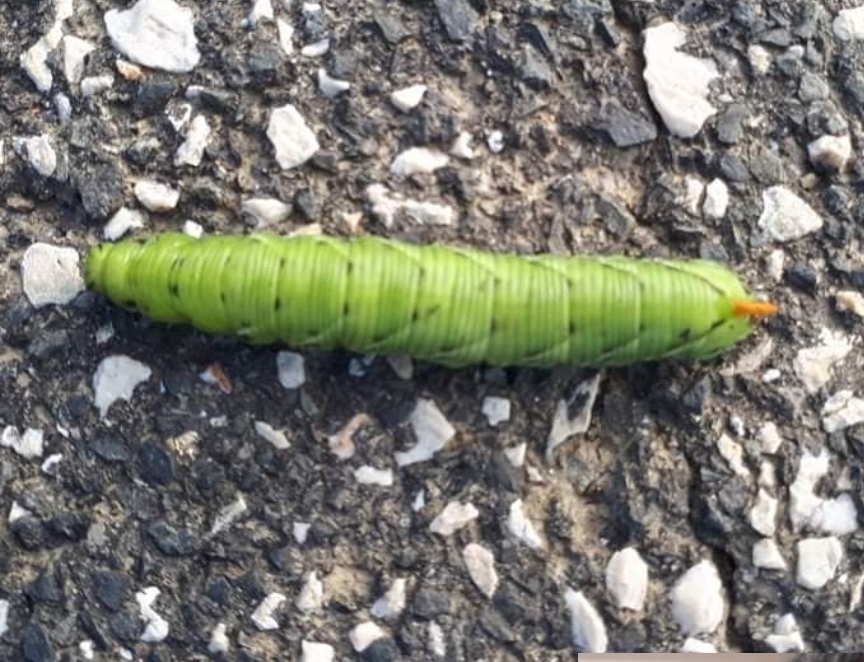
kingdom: Animalia
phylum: Arthropoda
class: Insecta
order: Lepidoptera
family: Sphingidae
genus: Agrius
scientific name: Agrius convolvuli
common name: Convolvulus hawkmoth
